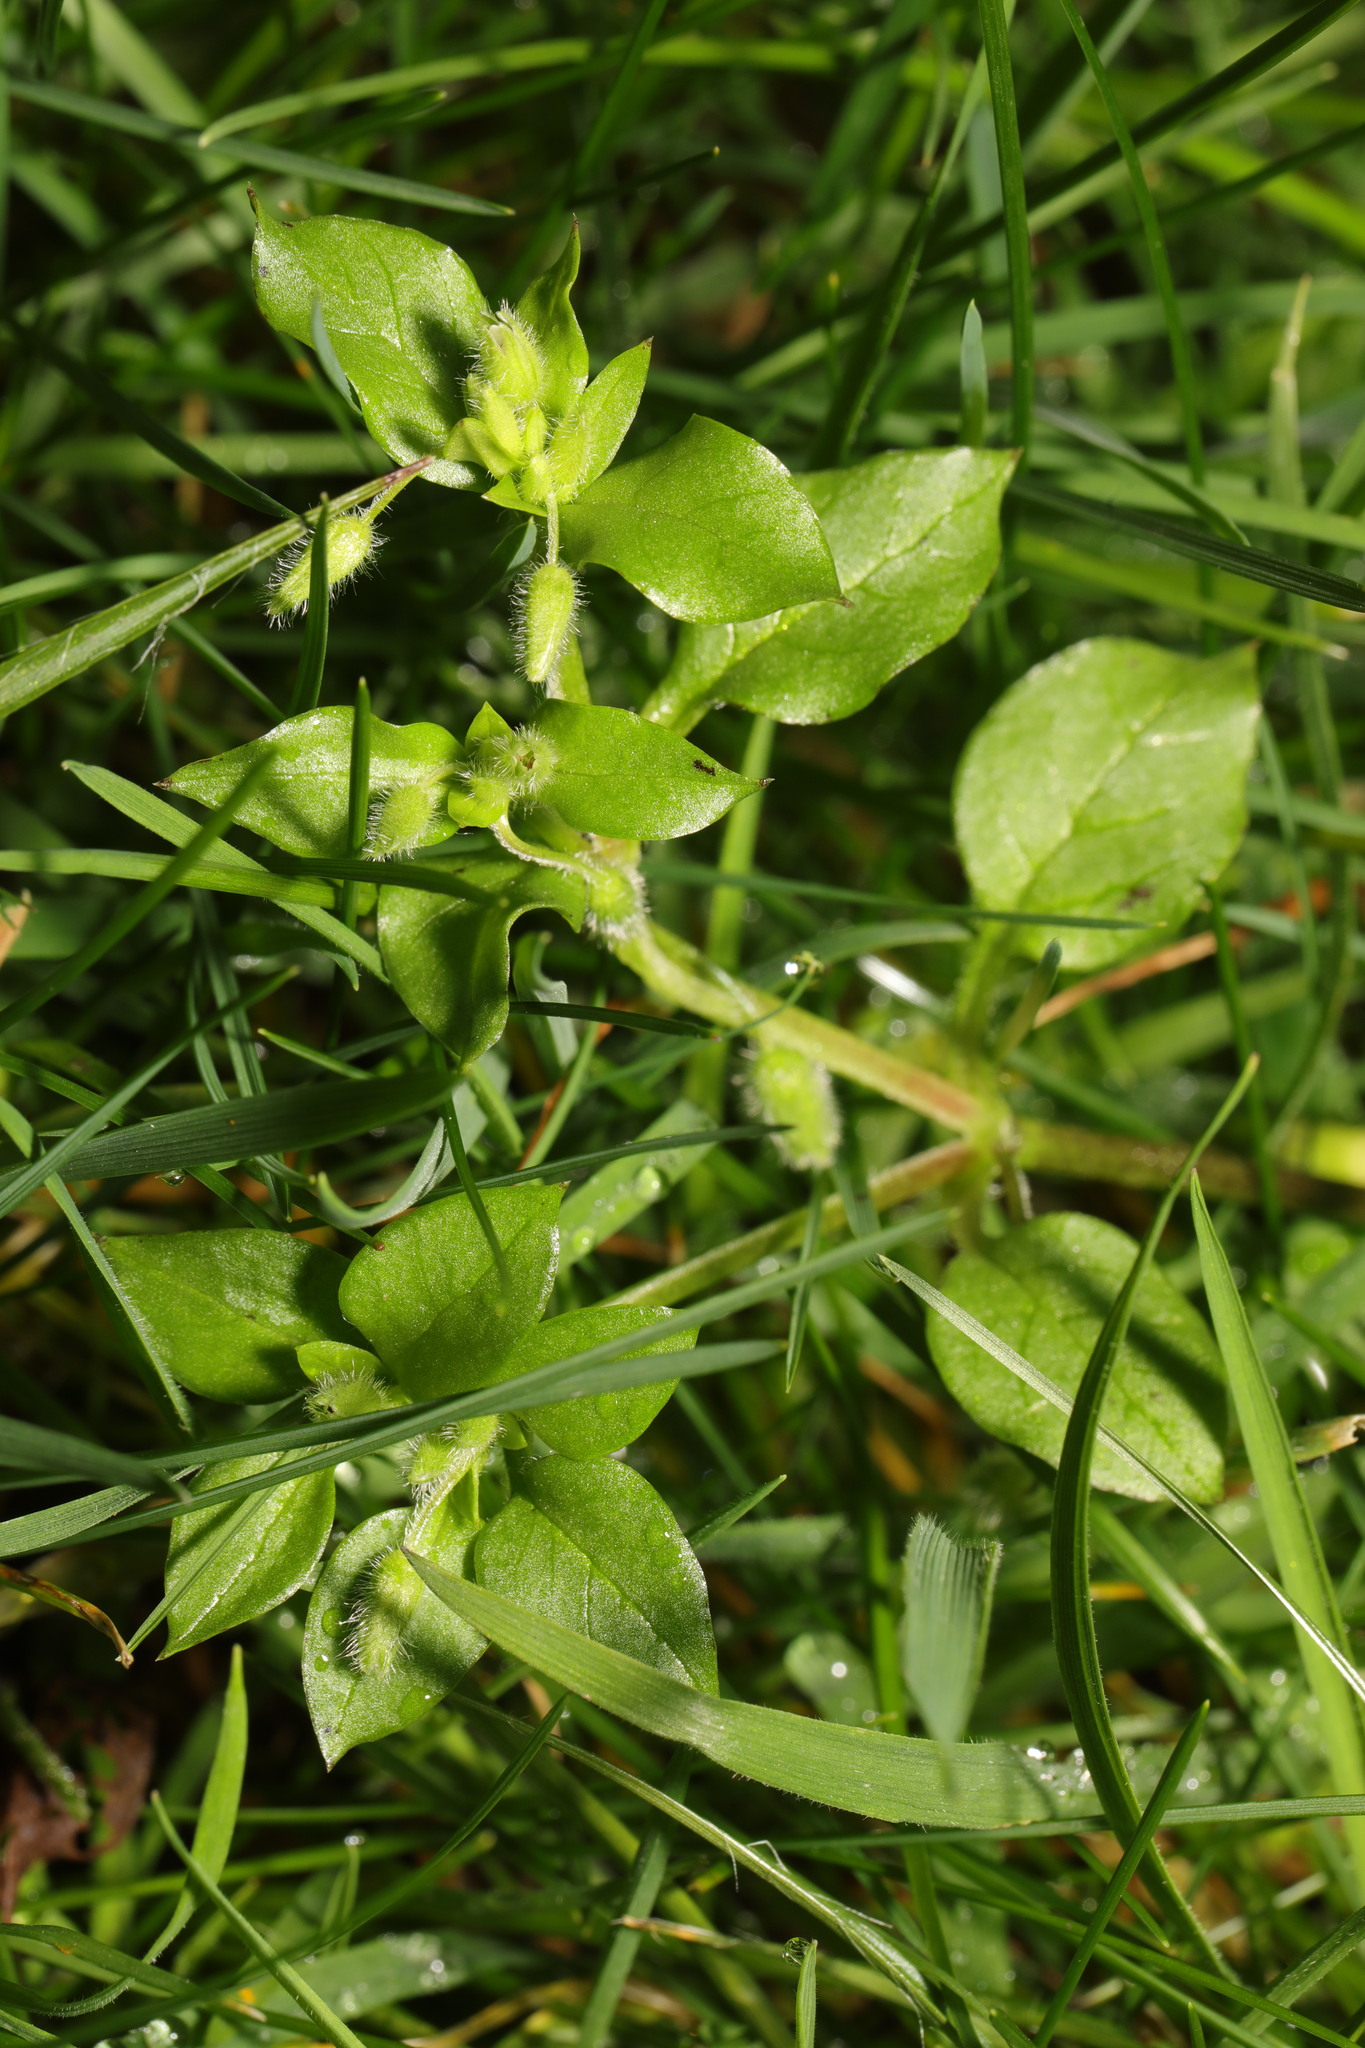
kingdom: Plantae
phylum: Tracheophyta
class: Magnoliopsida
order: Caryophyllales
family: Caryophyllaceae
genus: Stellaria
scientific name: Stellaria media
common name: Common chickweed
